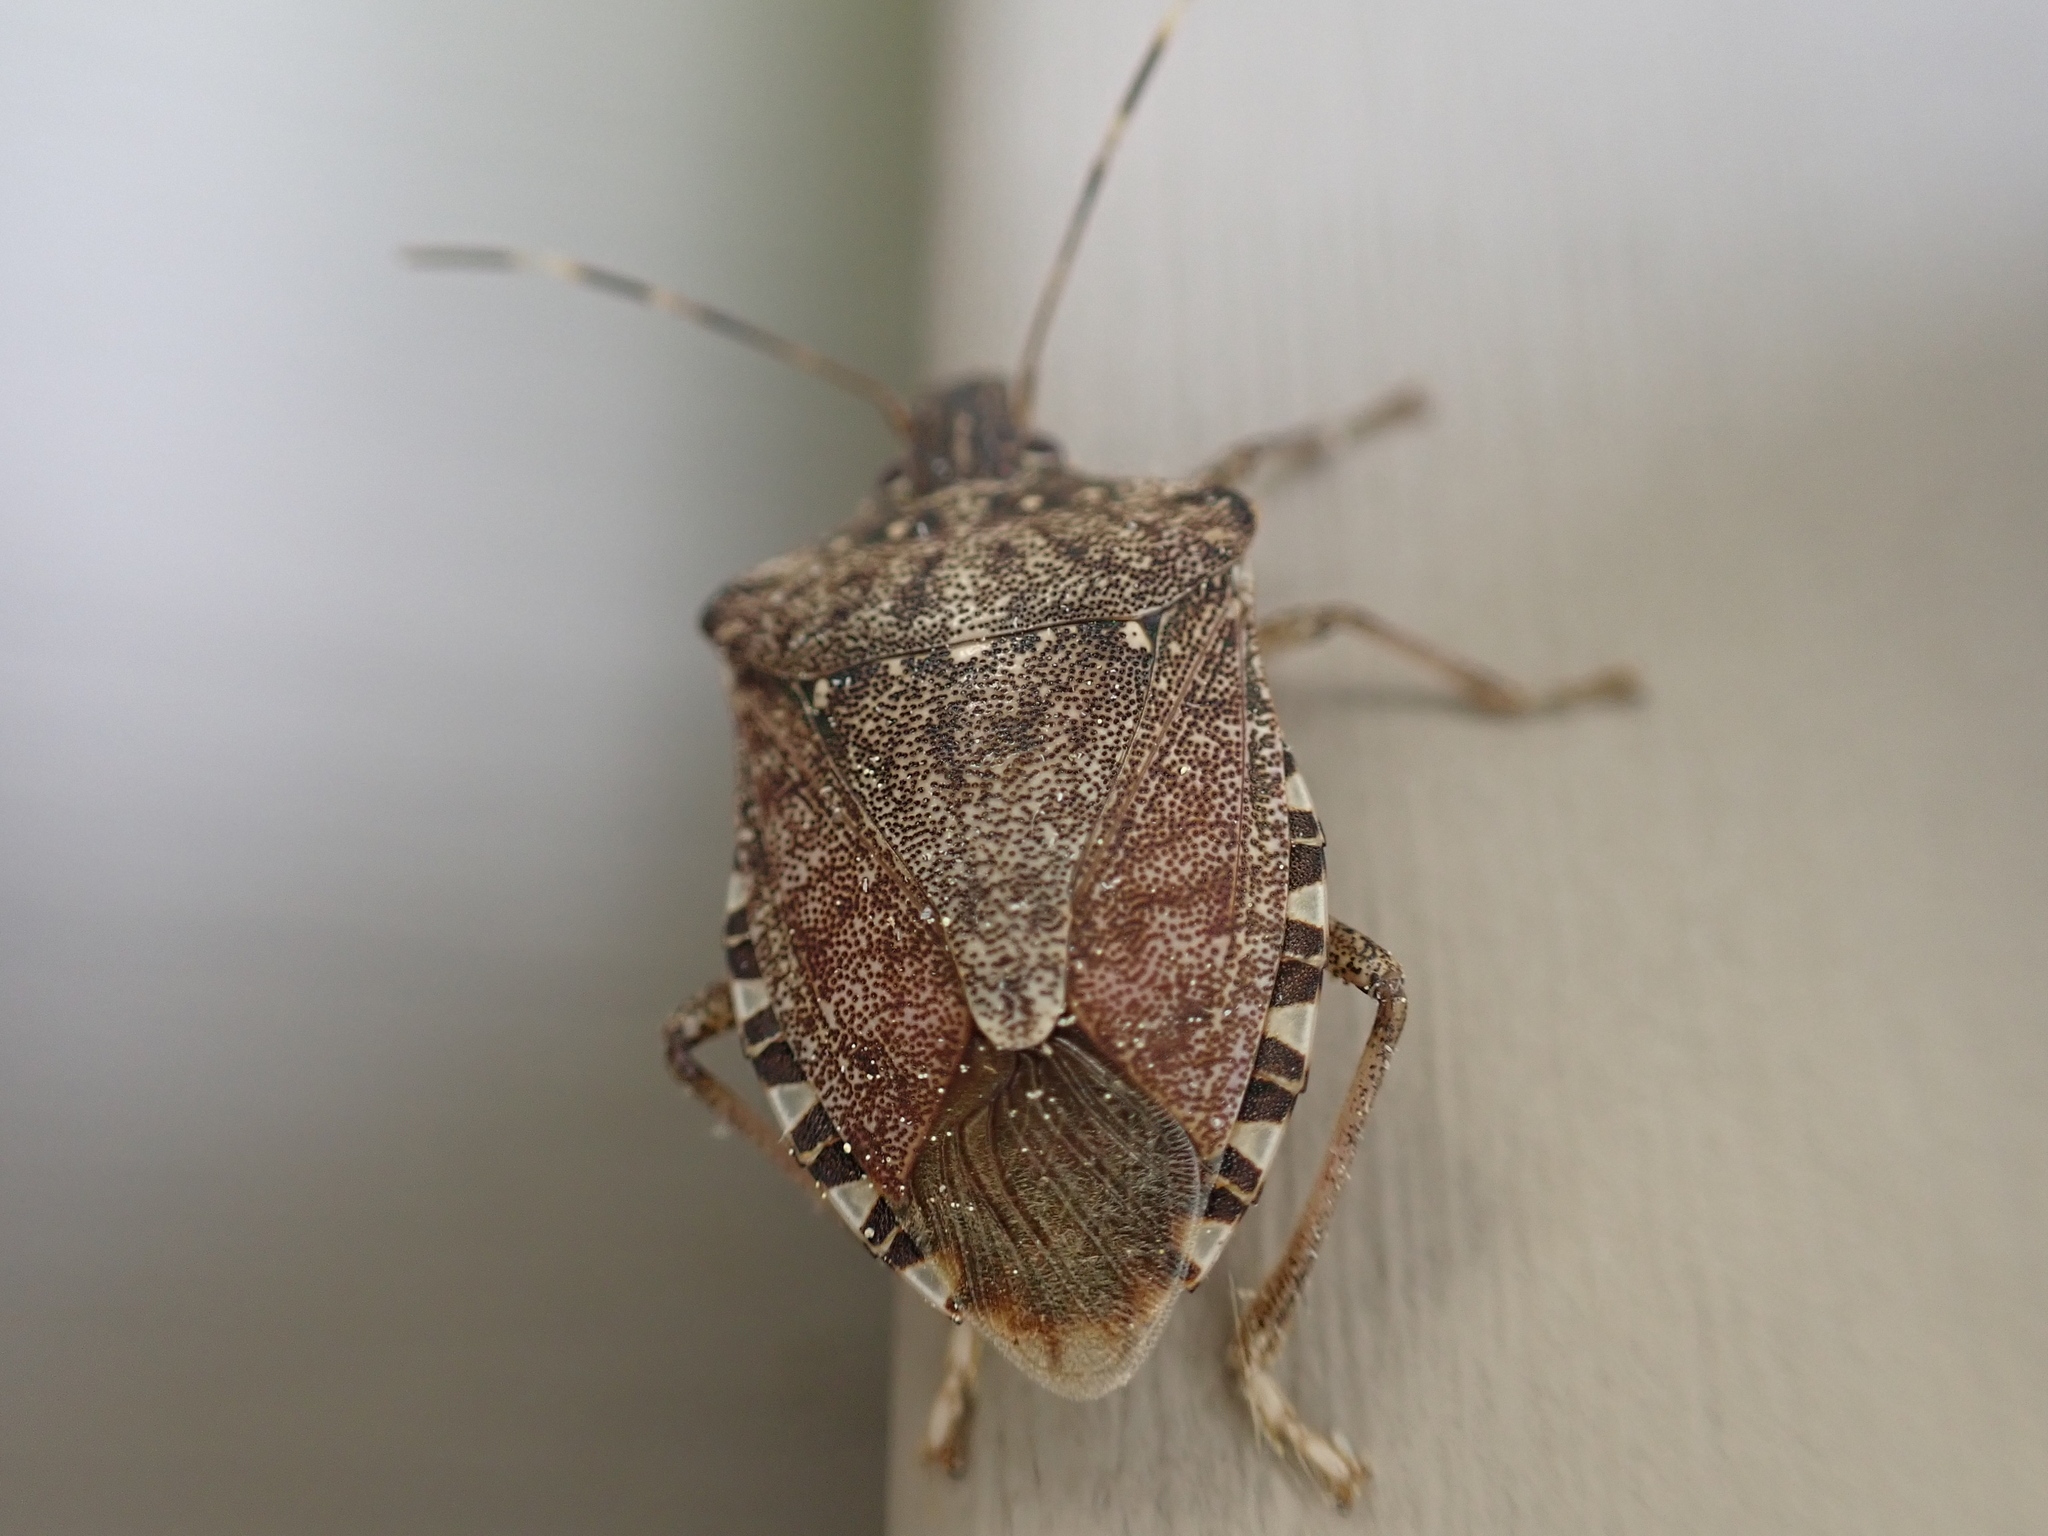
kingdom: Animalia
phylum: Arthropoda
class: Insecta
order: Hemiptera
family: Pentatomidae
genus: Halyomorpha
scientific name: Halyomorpha halys
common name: Brown marmorated stink bug
